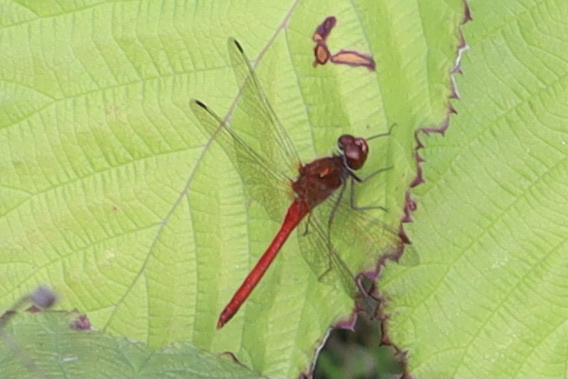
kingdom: Animalia
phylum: Arthropoda
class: Insecta
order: Odonata
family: Libellulidae
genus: Sympetrum
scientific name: Sympetrum vicinum
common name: Autumn meadowhawk
